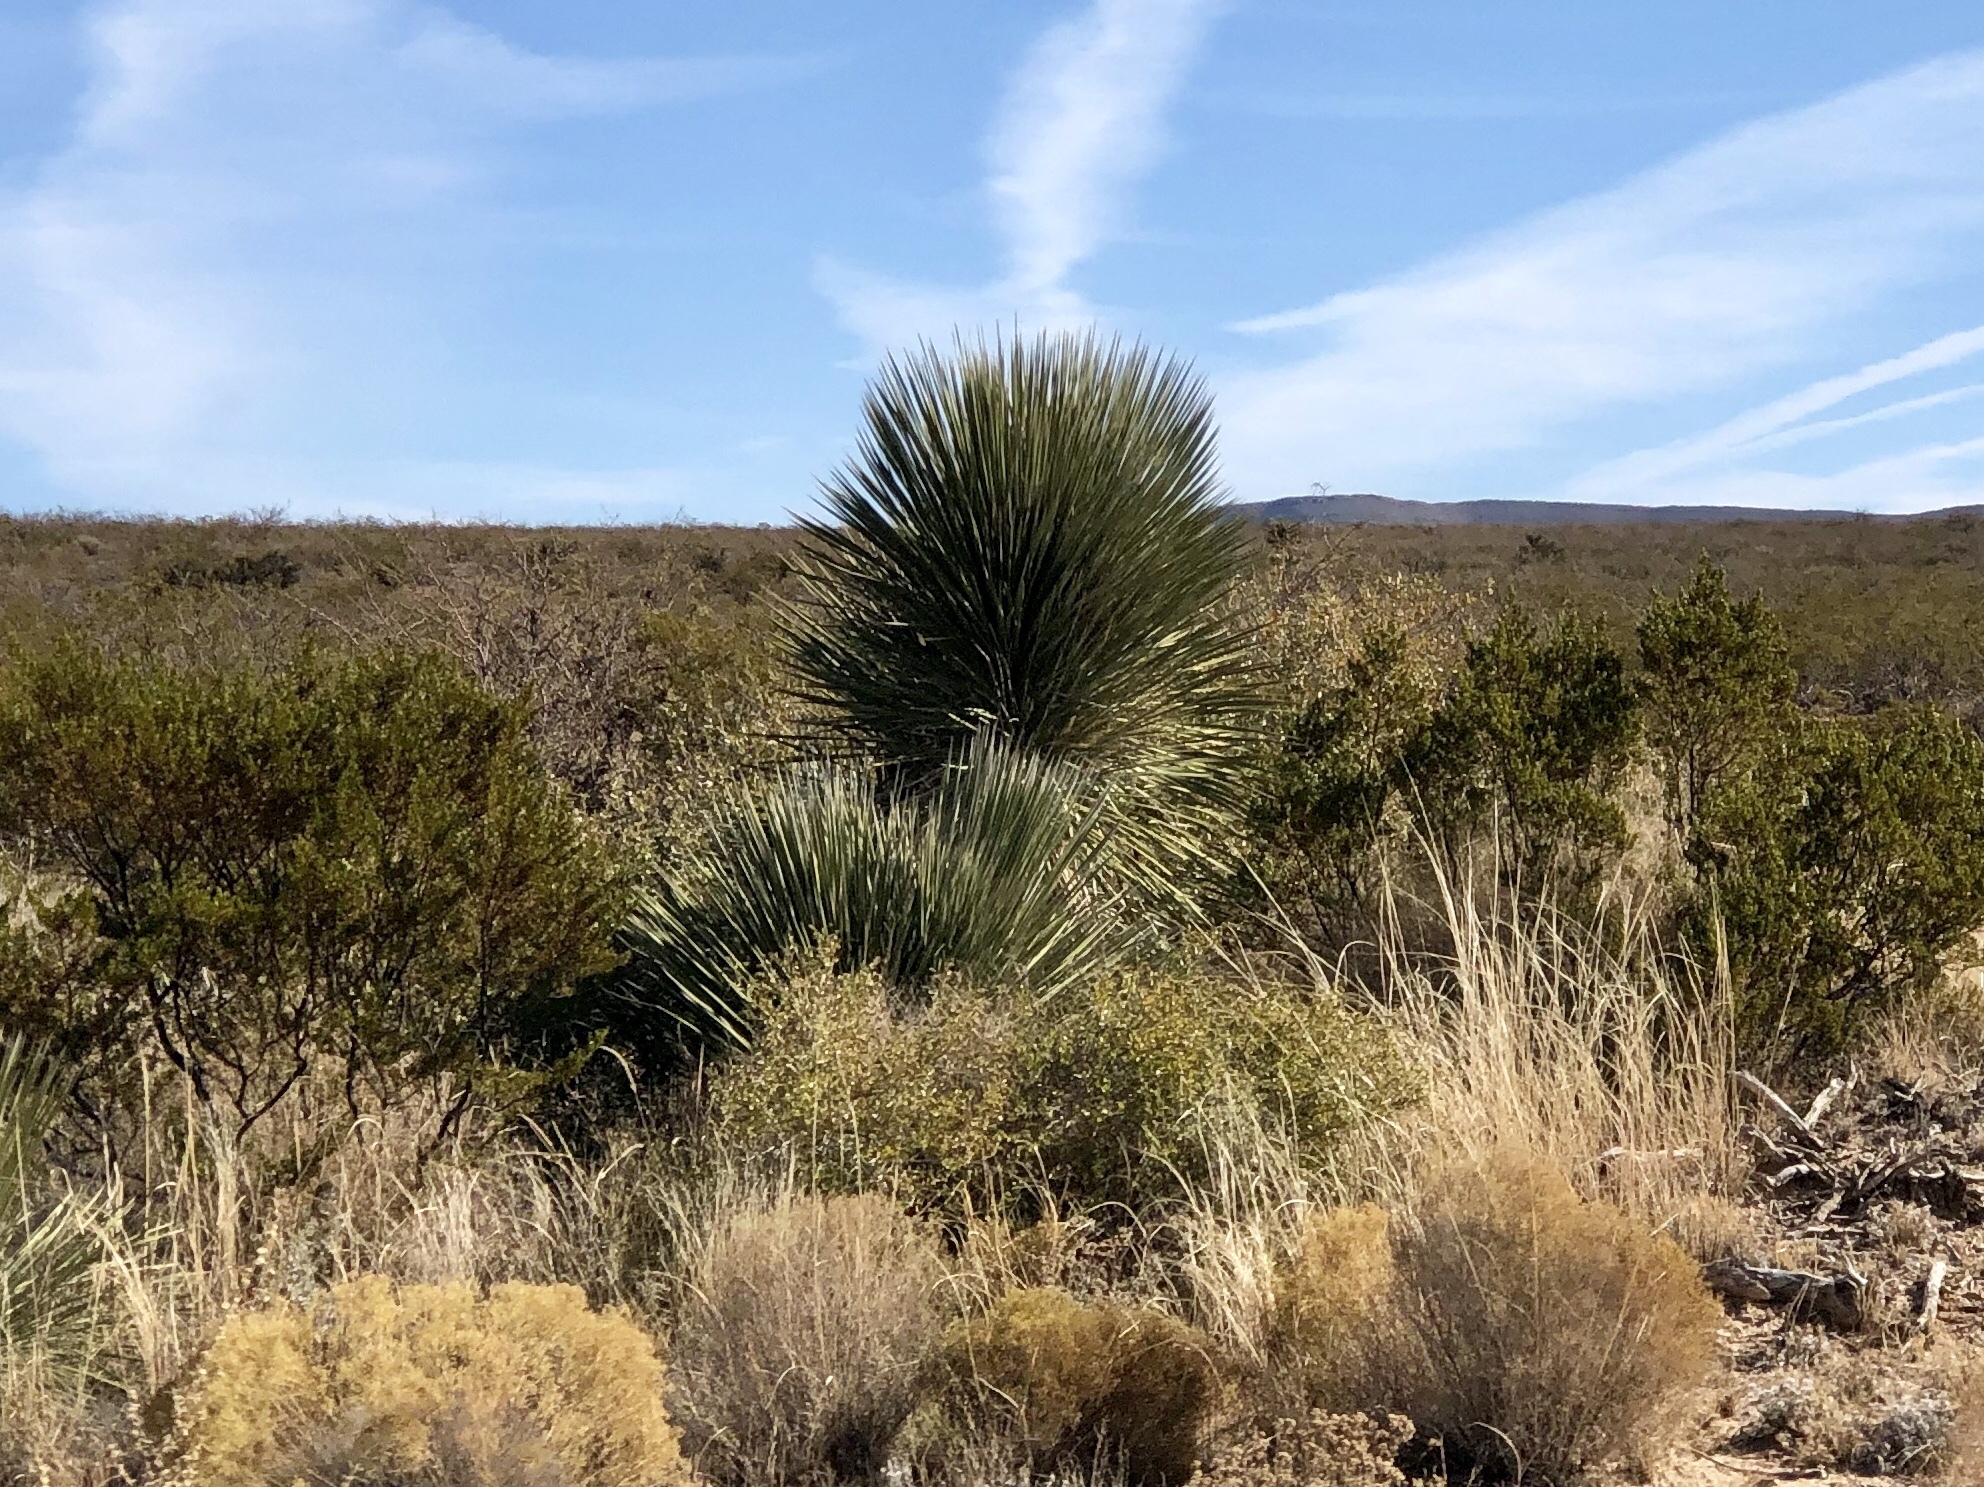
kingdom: Plantae
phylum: Tracheophyta
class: Liliopsida
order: Asparagales
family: Asparagaceae
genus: Yucca
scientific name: Yucca elata
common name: Palmella
